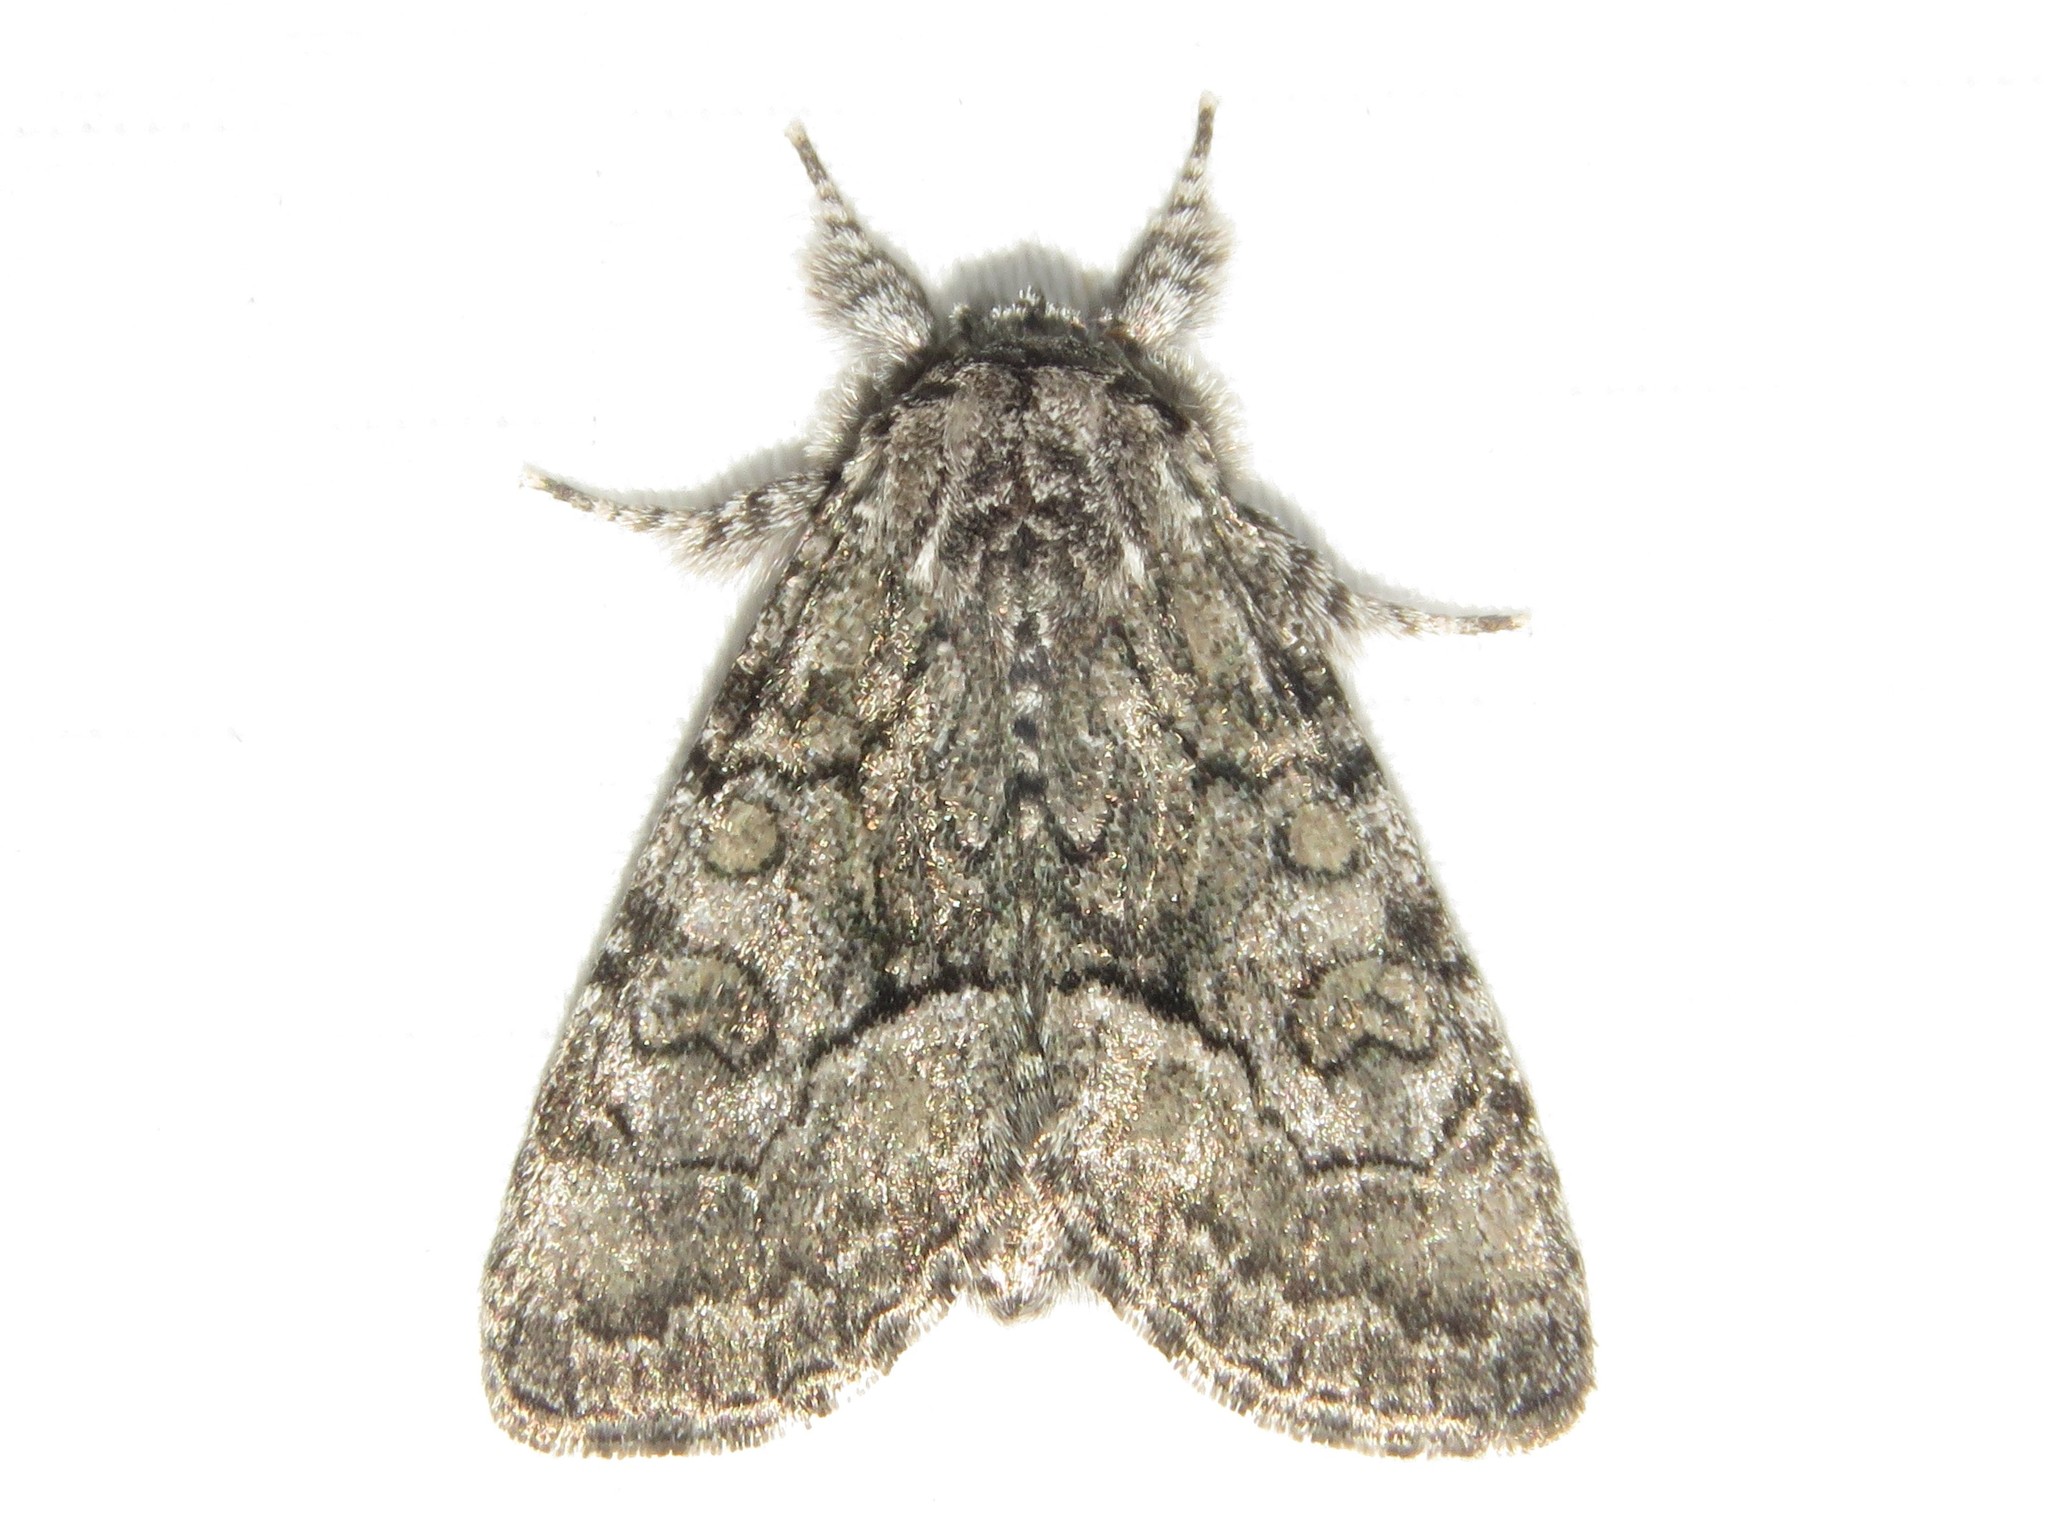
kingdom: Animalia
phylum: Arthropoda
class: Insecta
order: Lepidoptera
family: Noctuidae
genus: Raphia
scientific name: Raphia frater
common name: Brother
